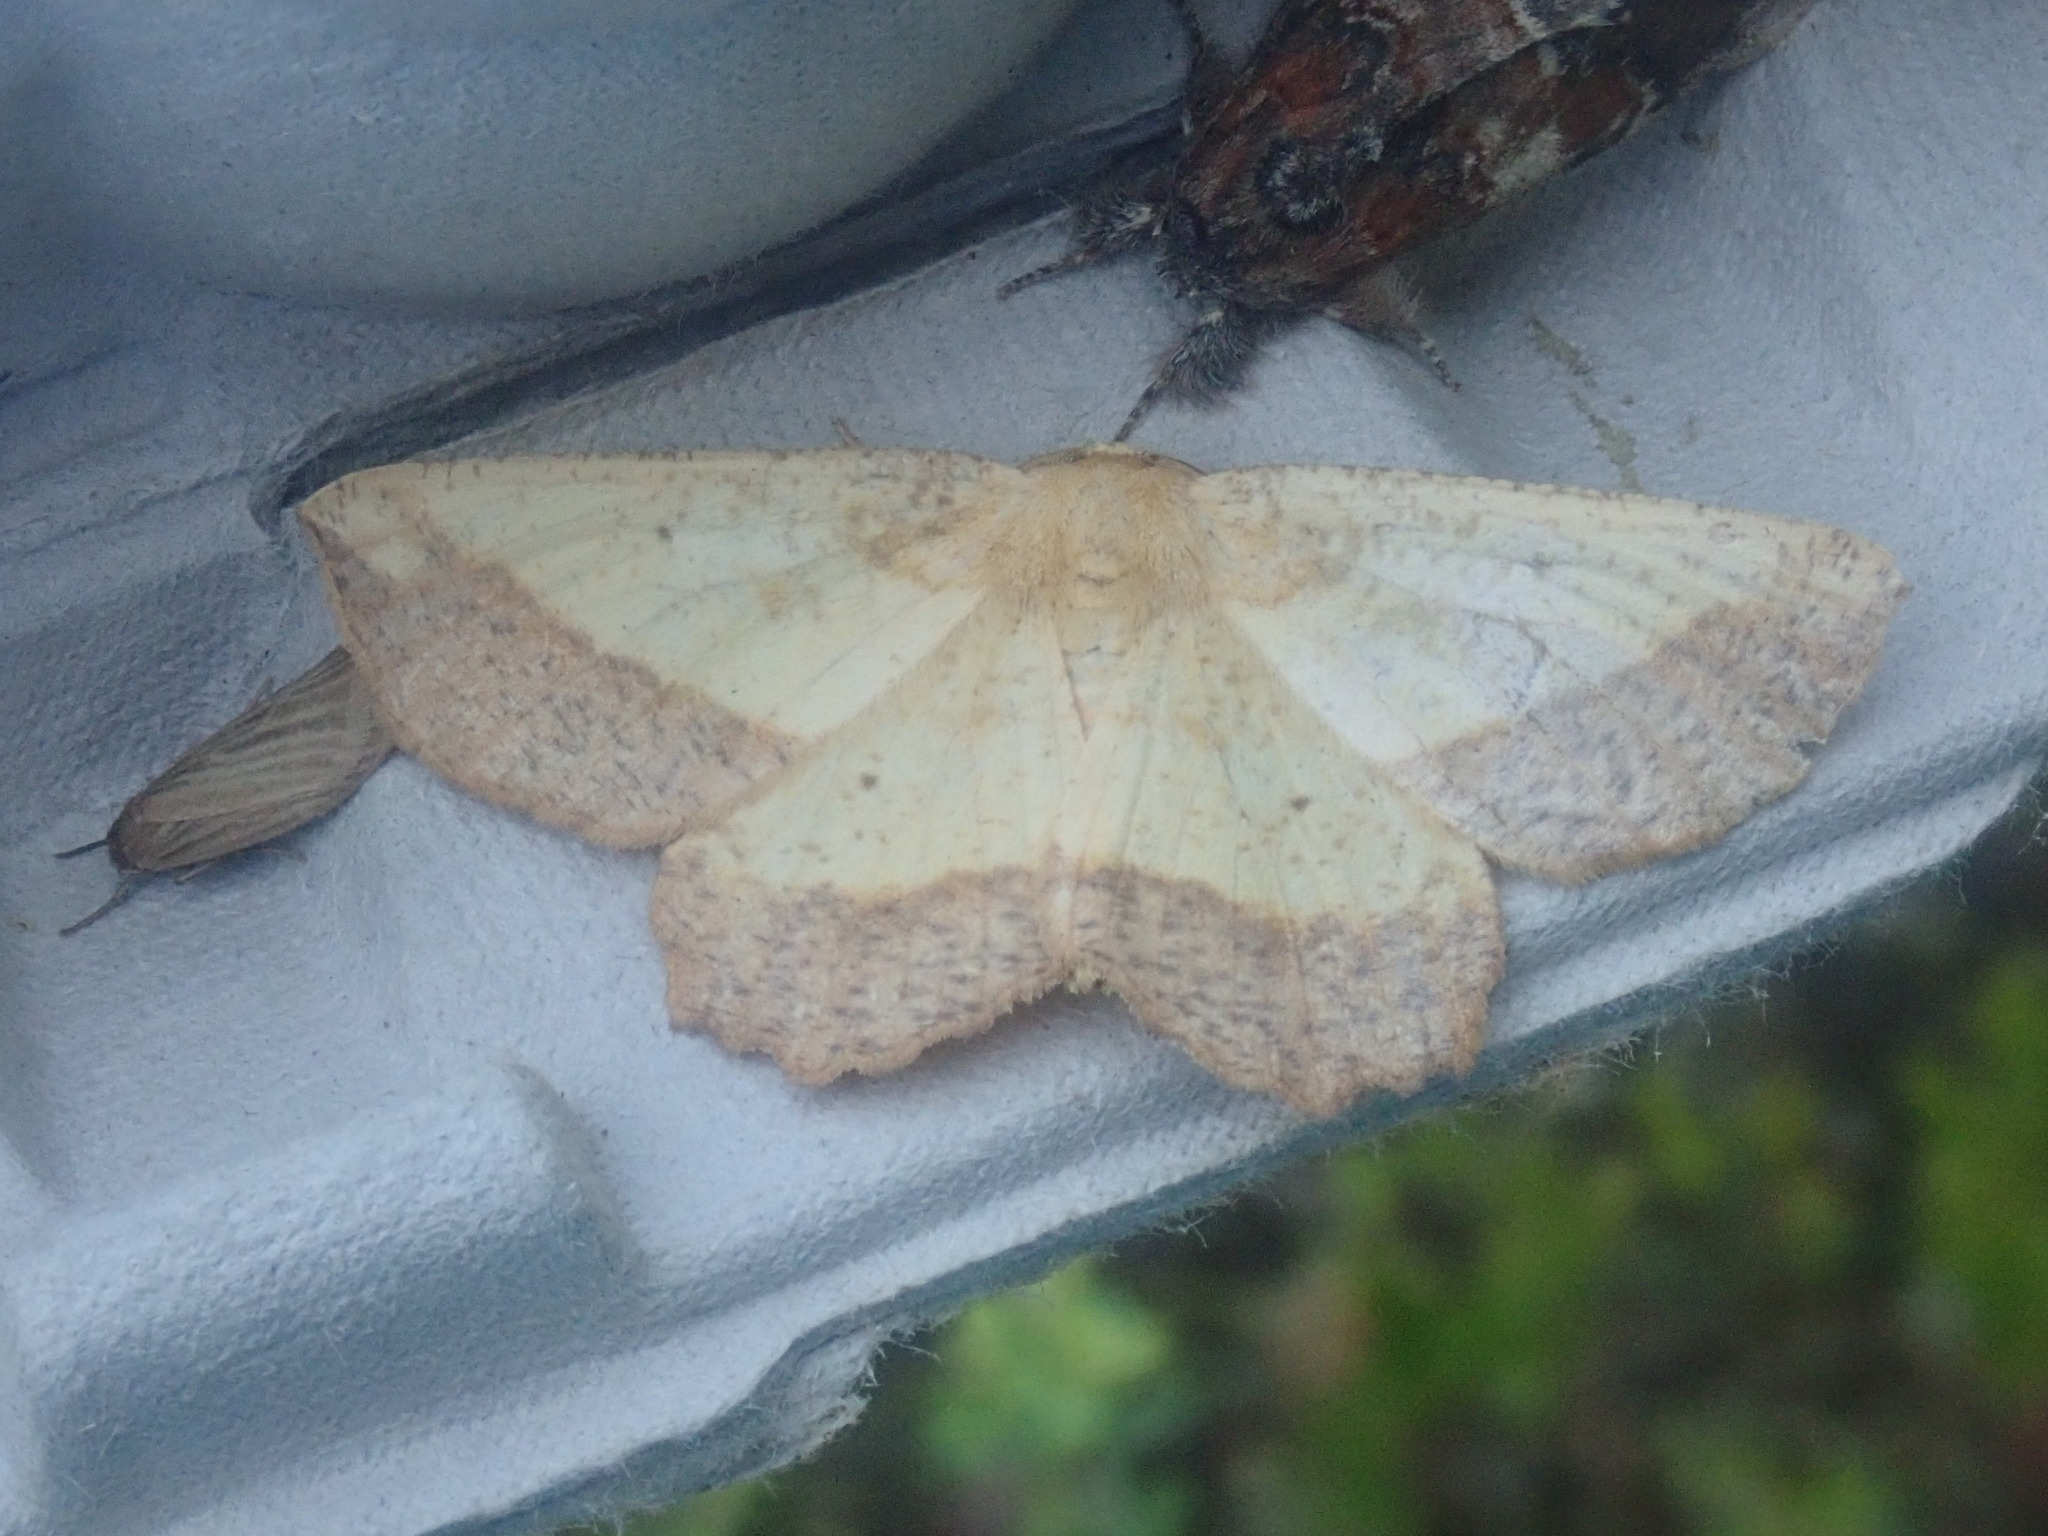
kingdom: Animalia
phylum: Arthropoda
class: Insecta
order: Lepidoptera
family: Geometridae
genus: Euchlaena
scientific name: Euchlaena serrata
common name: Saw wing
